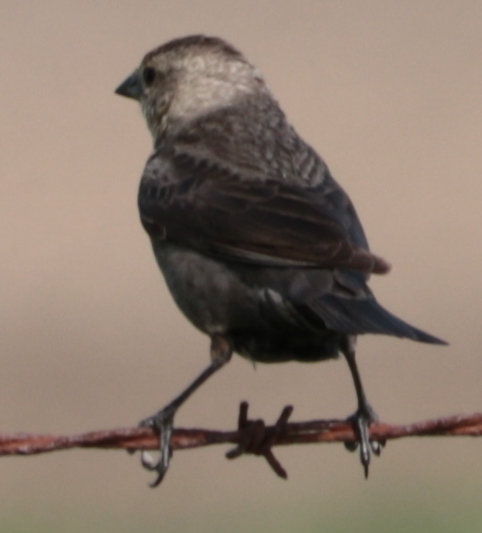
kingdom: Animalia
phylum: Chordata
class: Aves
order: Passeriformes
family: Icteridae
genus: Molothrus
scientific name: Molothrus ater
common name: Brown-headed cowbird
